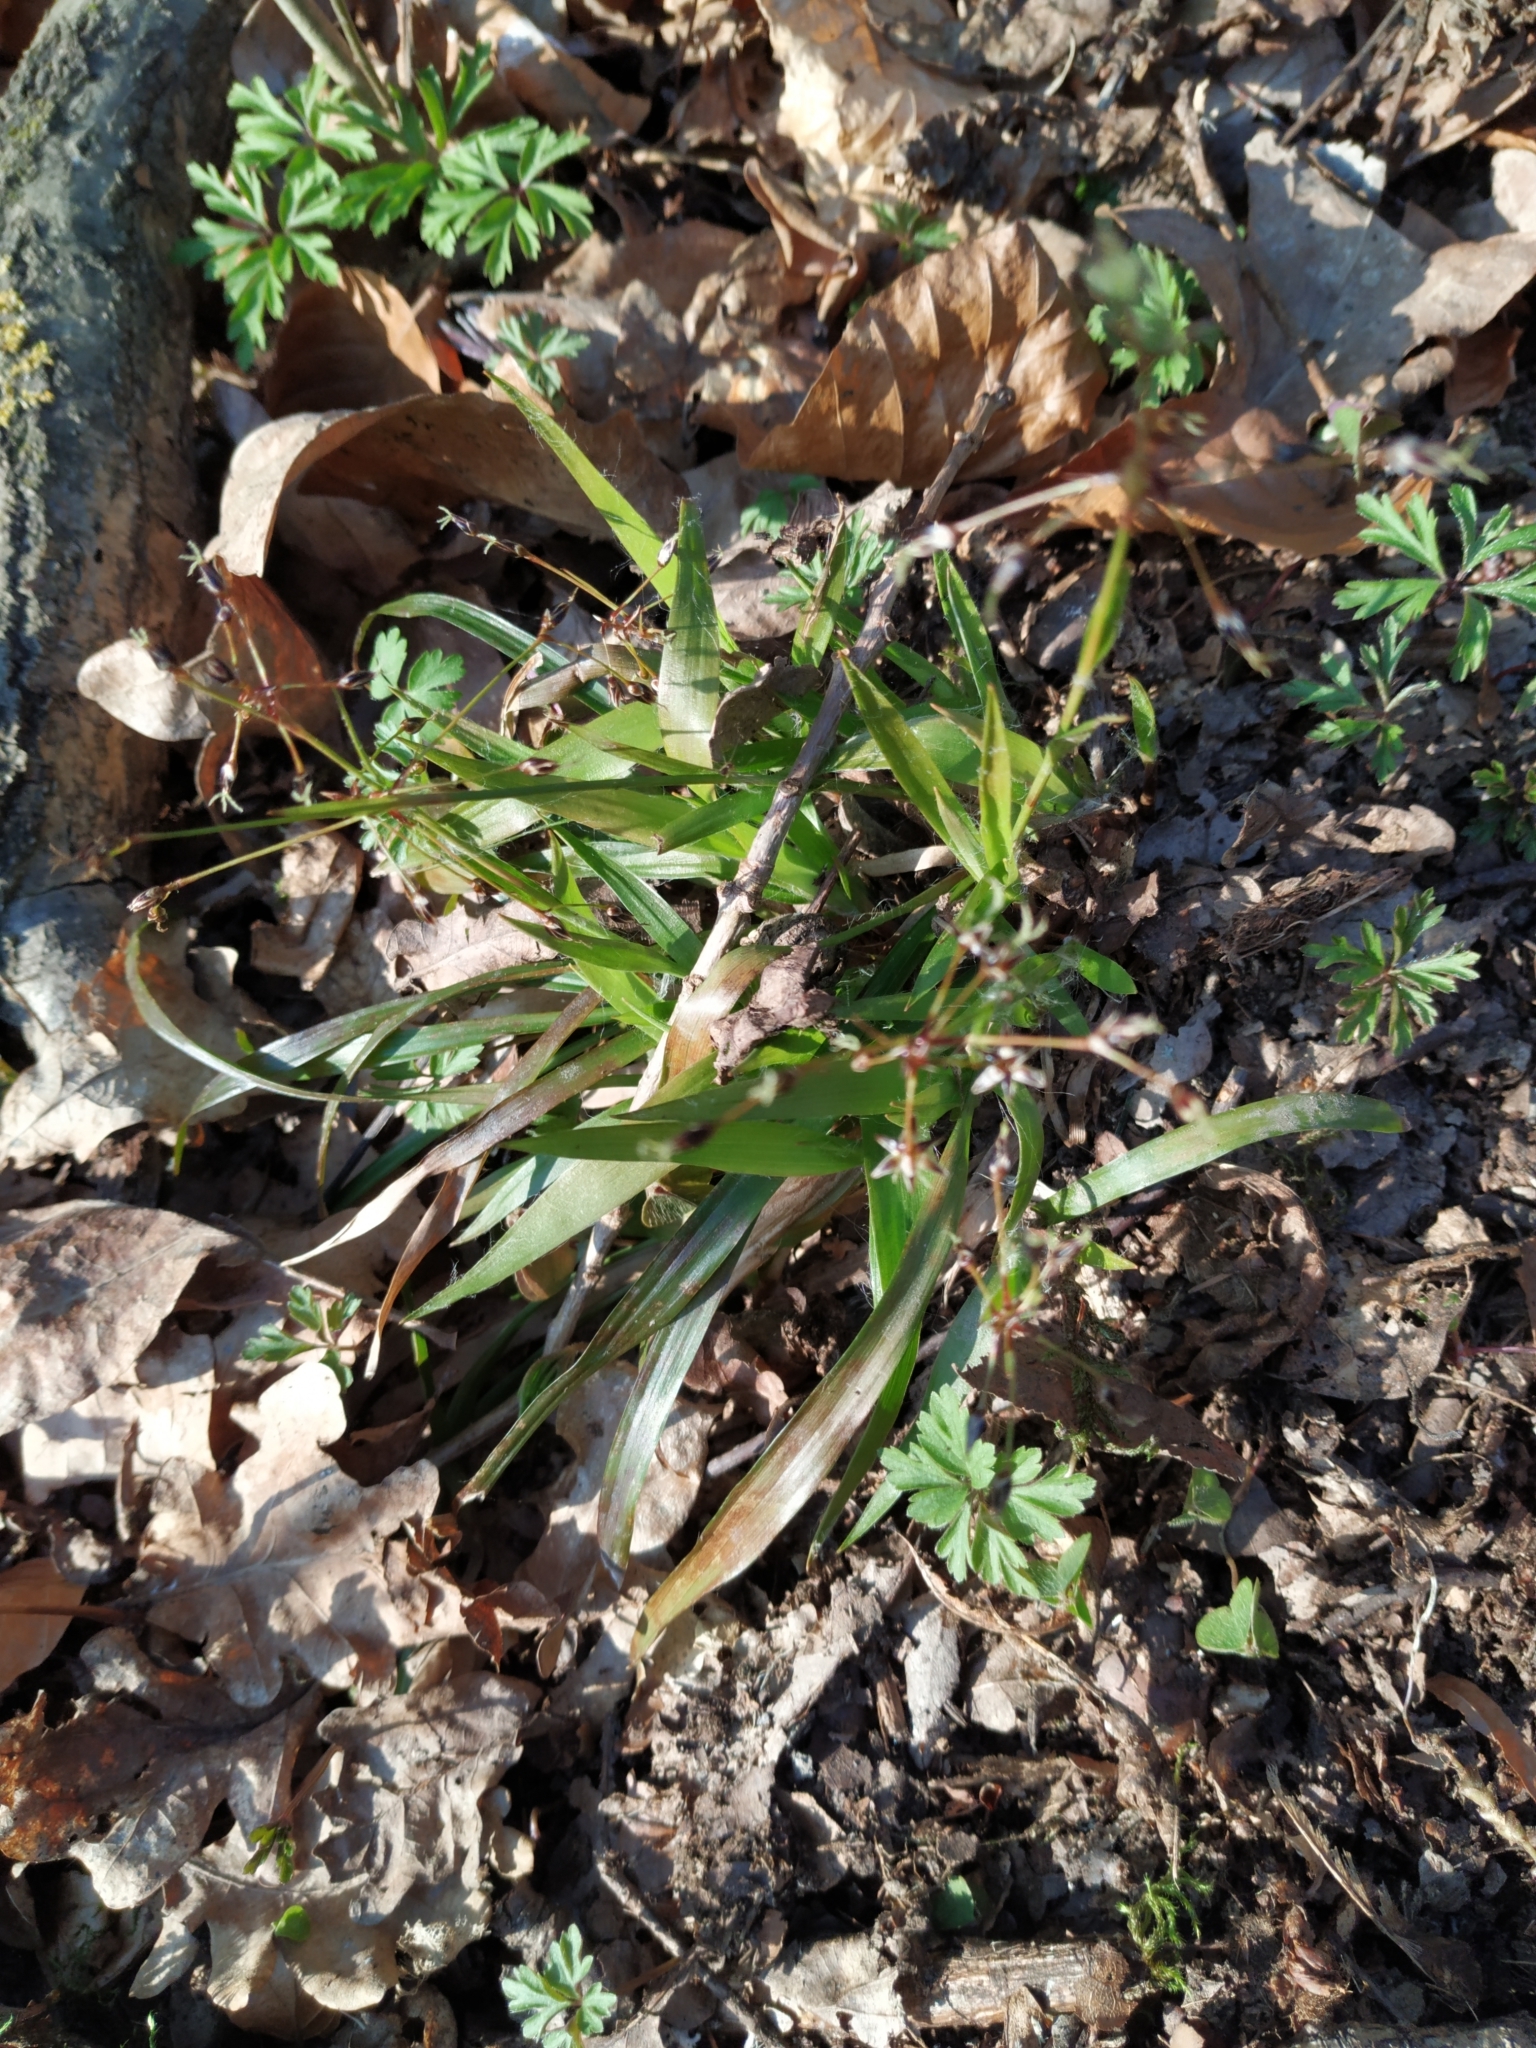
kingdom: Plantae
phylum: Tracheophyta
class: Liliopsida
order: Poales
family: Juncaceae
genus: Luzula
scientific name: Luzula pilosa
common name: Hairy wood-rush
